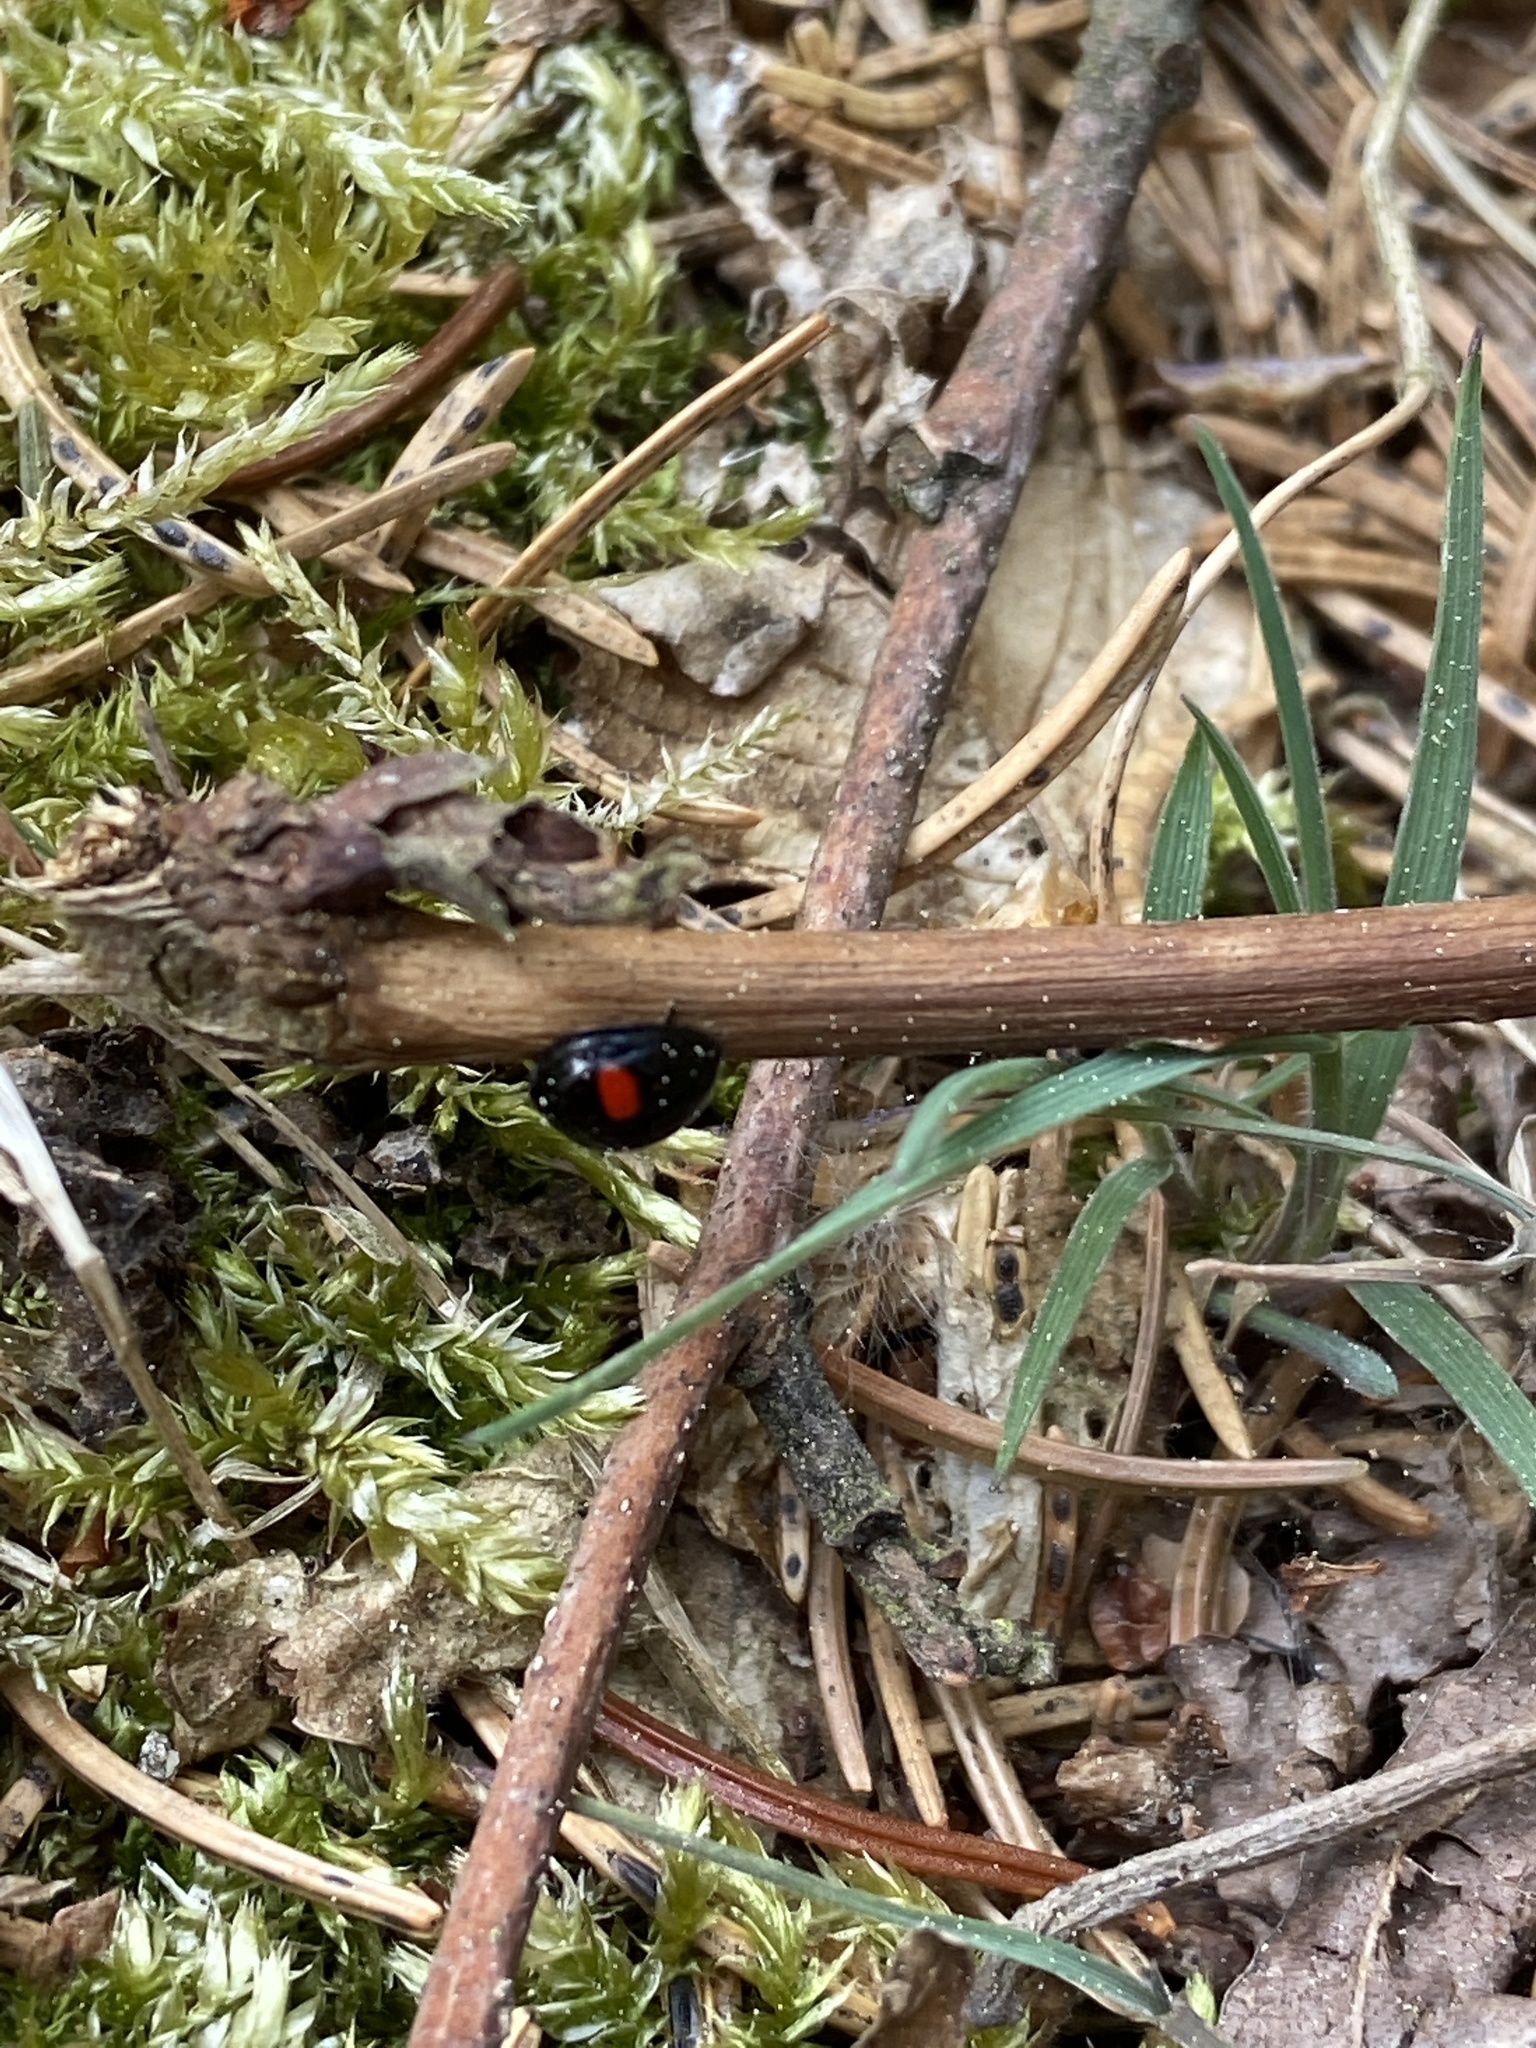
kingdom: Animalia
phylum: Arthropoda
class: Insecta
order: Coleoptera
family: Coccinellidae
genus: Chilocorus
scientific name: Chilocorus renipustulatus
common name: Kidney-spot ladybird
